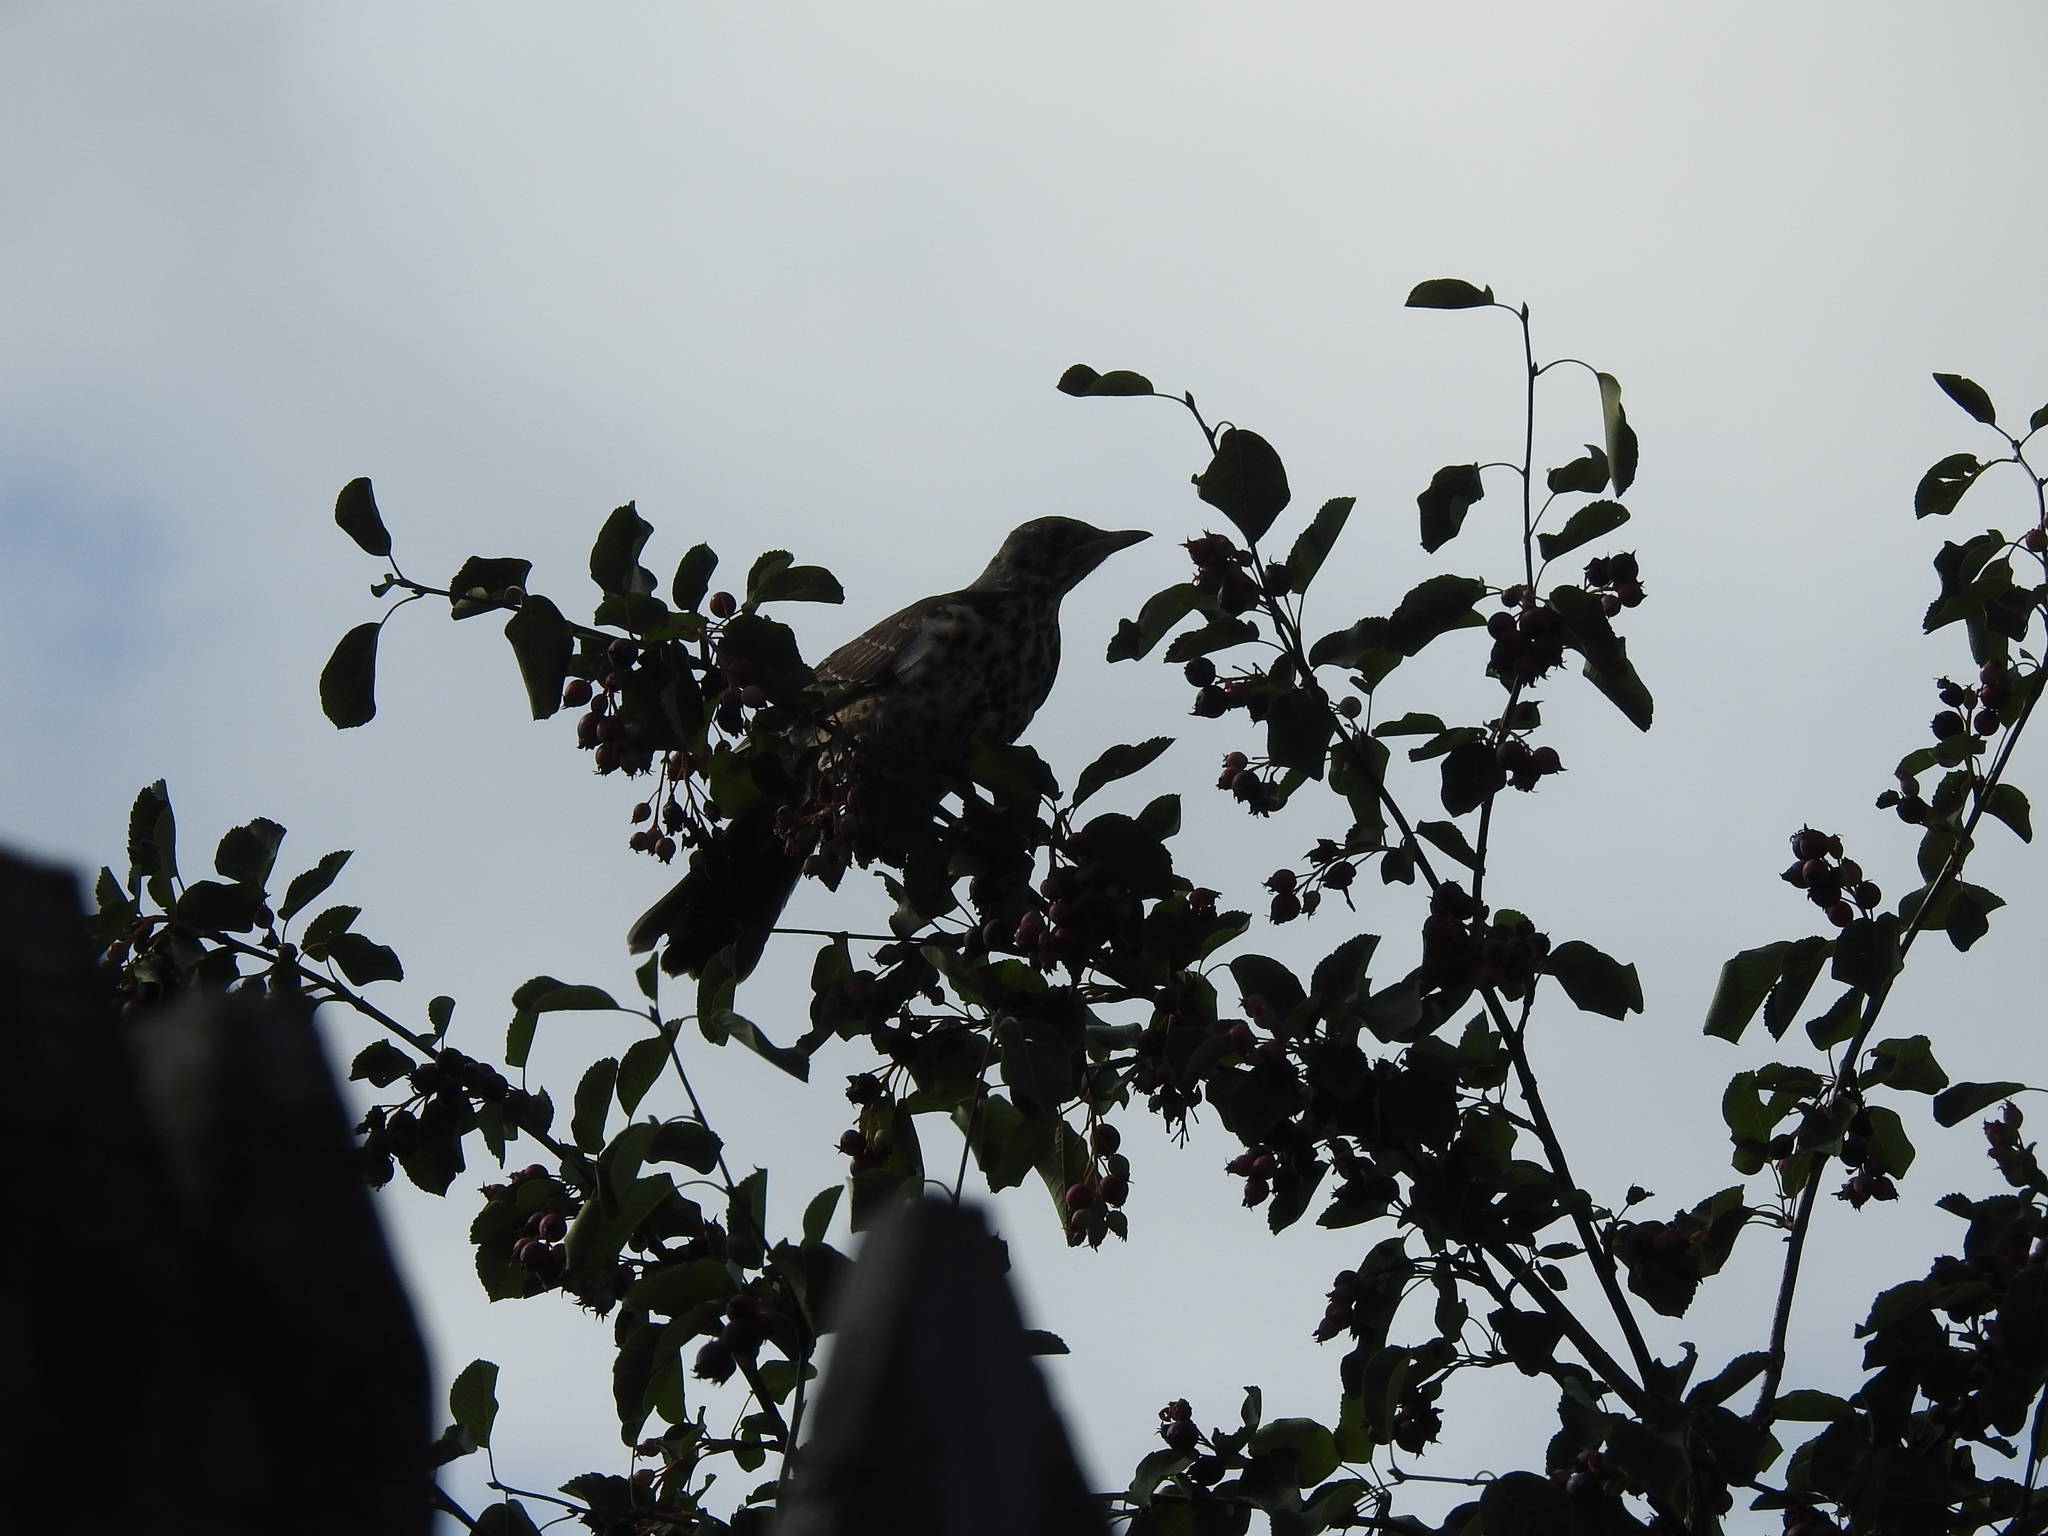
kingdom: Animalia
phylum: Chordata
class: Aves
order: Passeriformes
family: Turdidae
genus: Turdus
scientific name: Turdus pilaris
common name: Fieldfare
